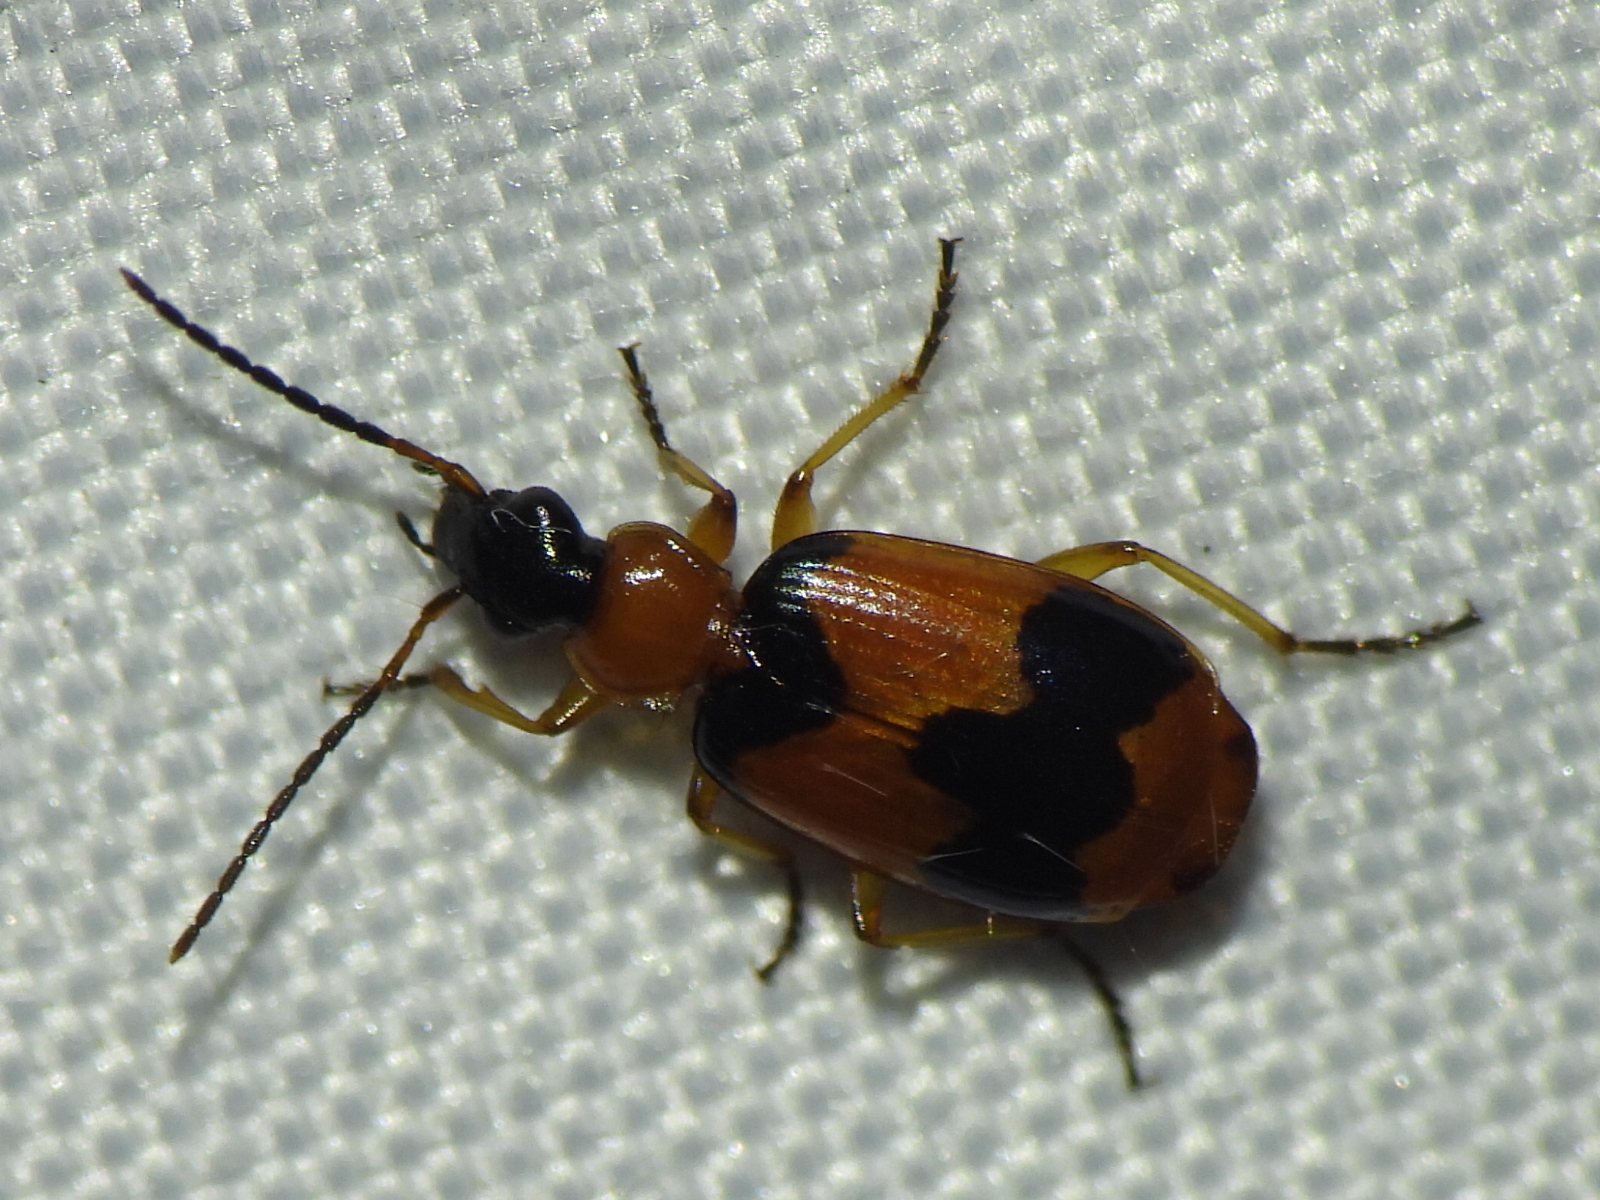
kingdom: Animalia
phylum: Arthropoda
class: Insecta
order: Coleoptera
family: Carabidae
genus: Lebia
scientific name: Lebia pulchella
